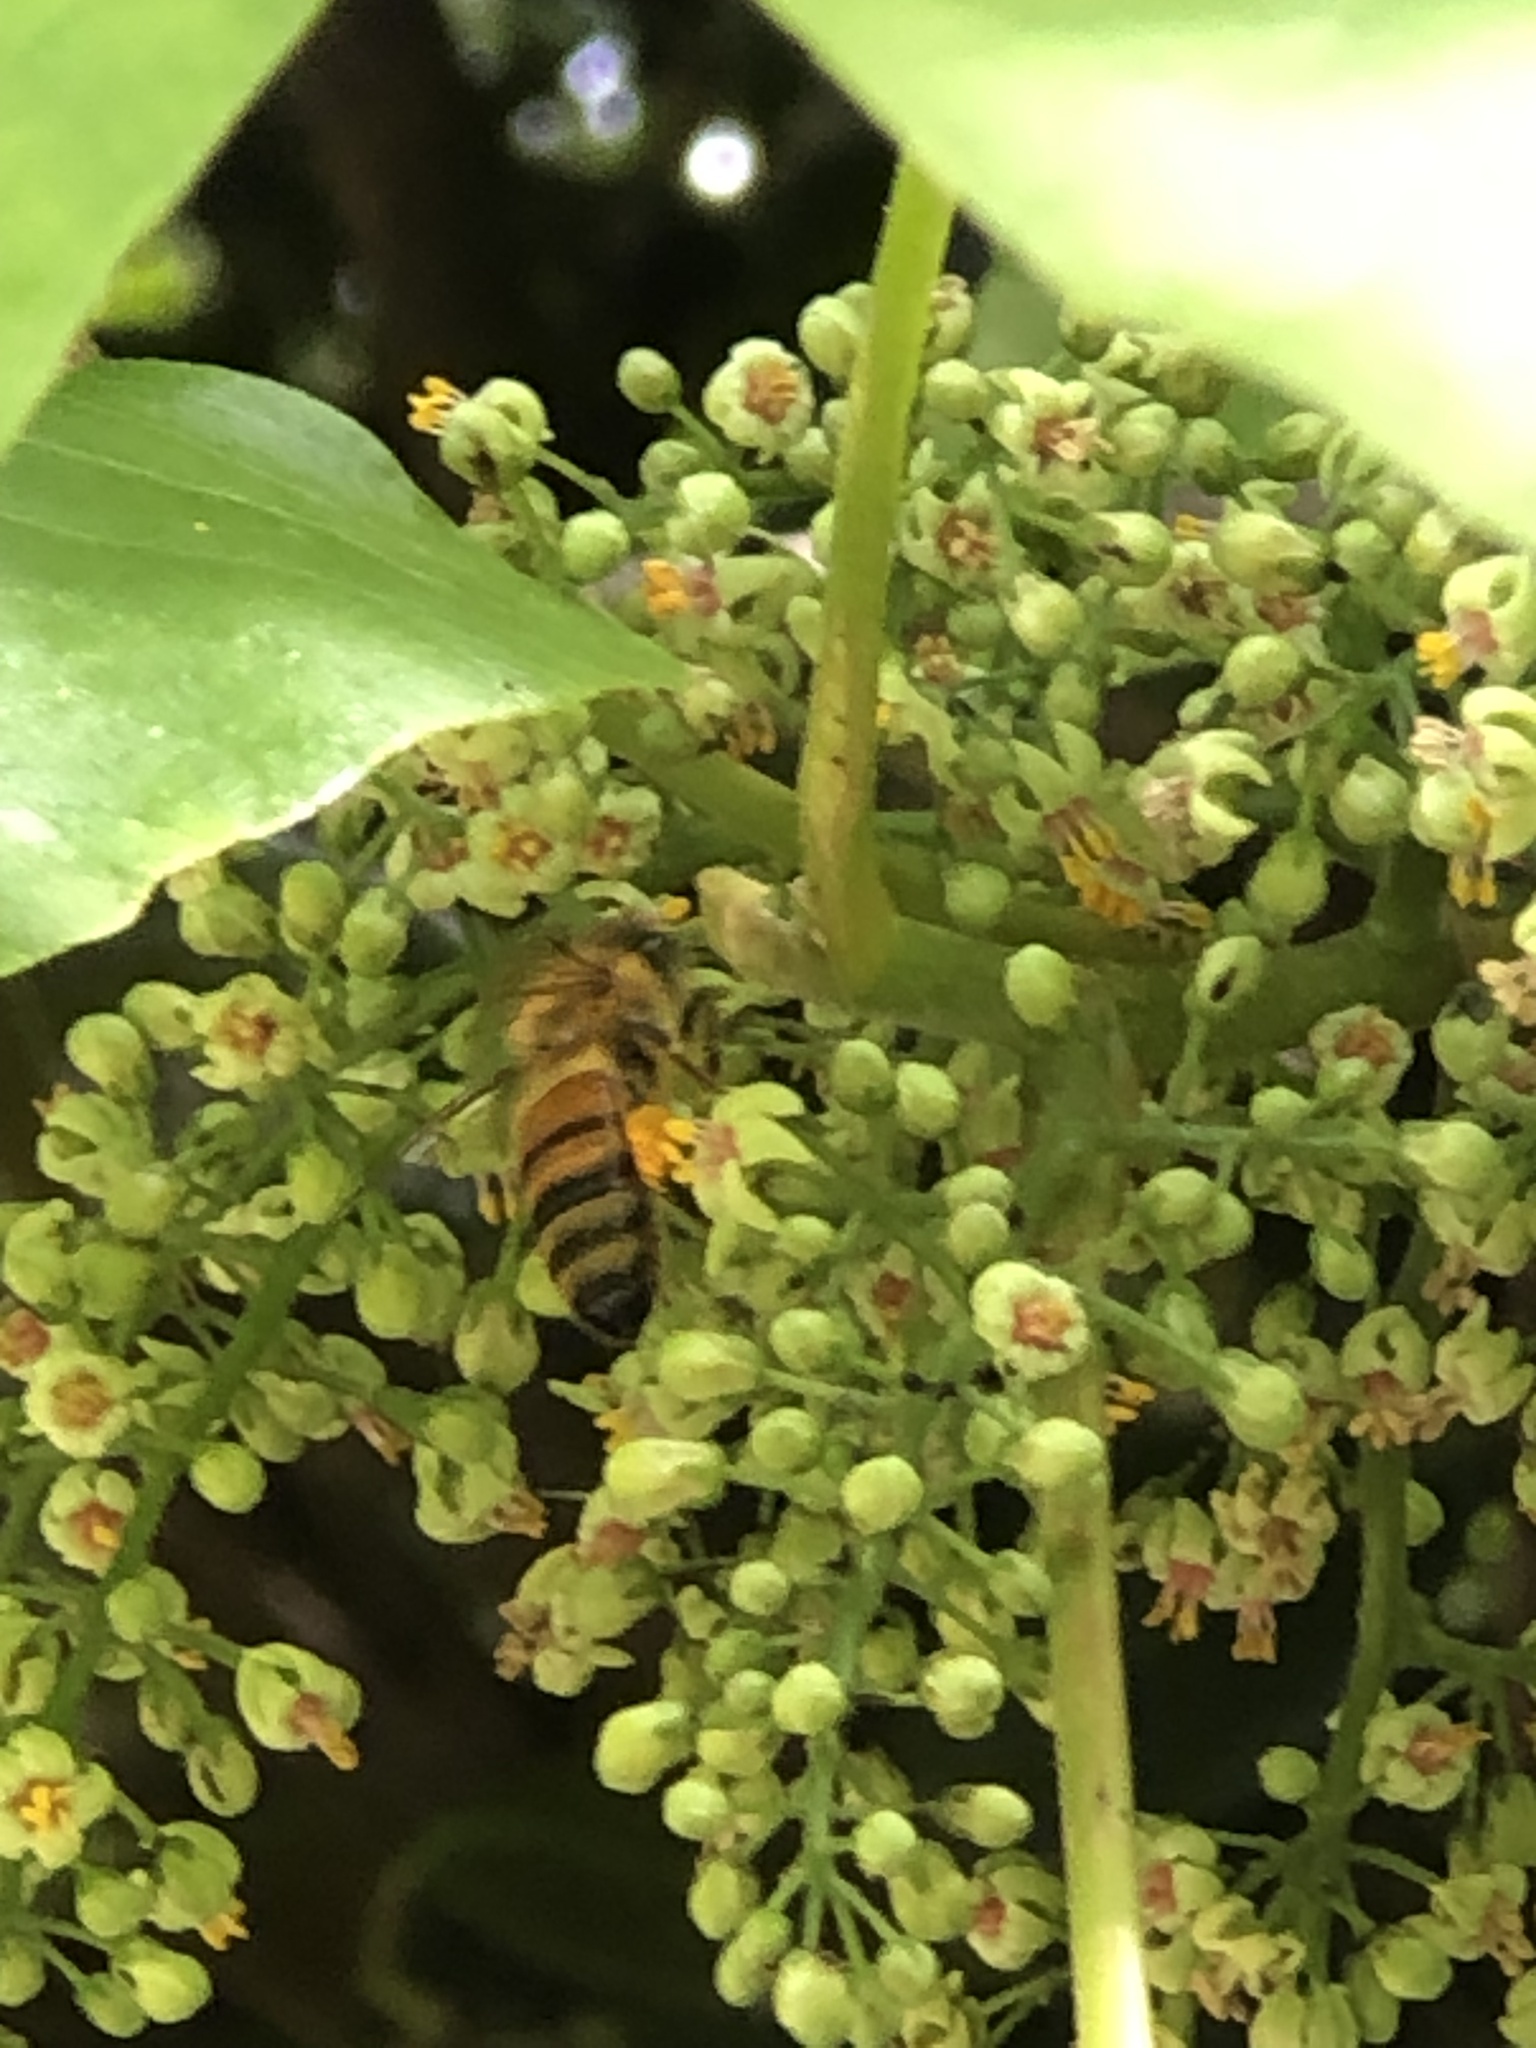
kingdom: Animalia
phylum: Arthropoda
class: Insecta
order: Hymenoptera
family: Apidae
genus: Apis
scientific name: Apis mellifera
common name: Honey bee
